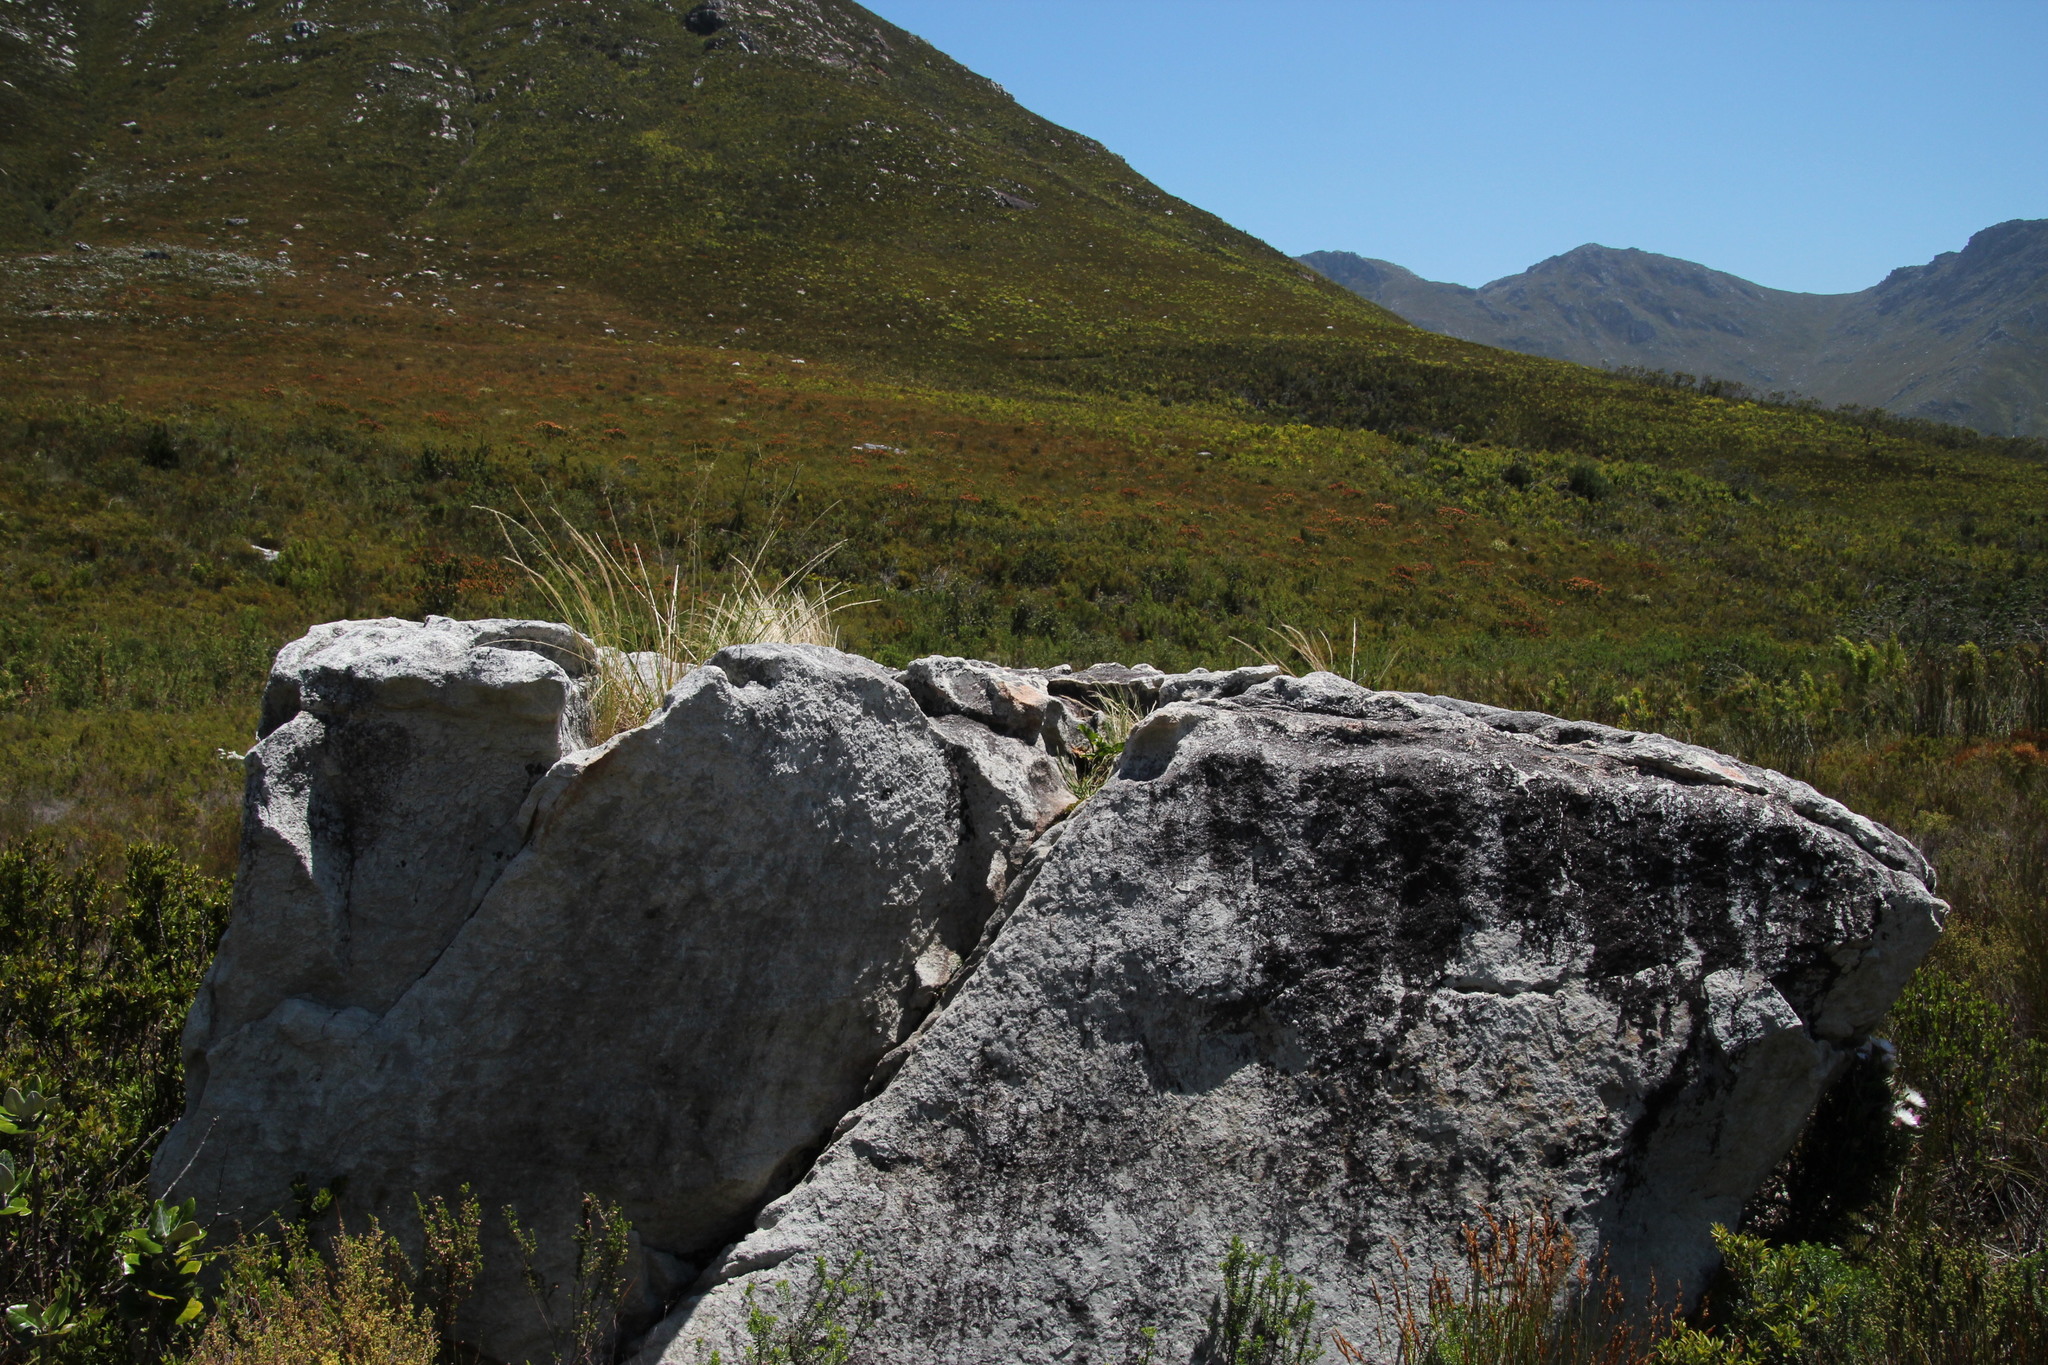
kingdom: Plantae
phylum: Tracheophyta
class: Liliopsida
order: Alismatales
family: Araceae
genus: Zantedeschia
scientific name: Zantedeschia aethiopica
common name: Altar-lily
